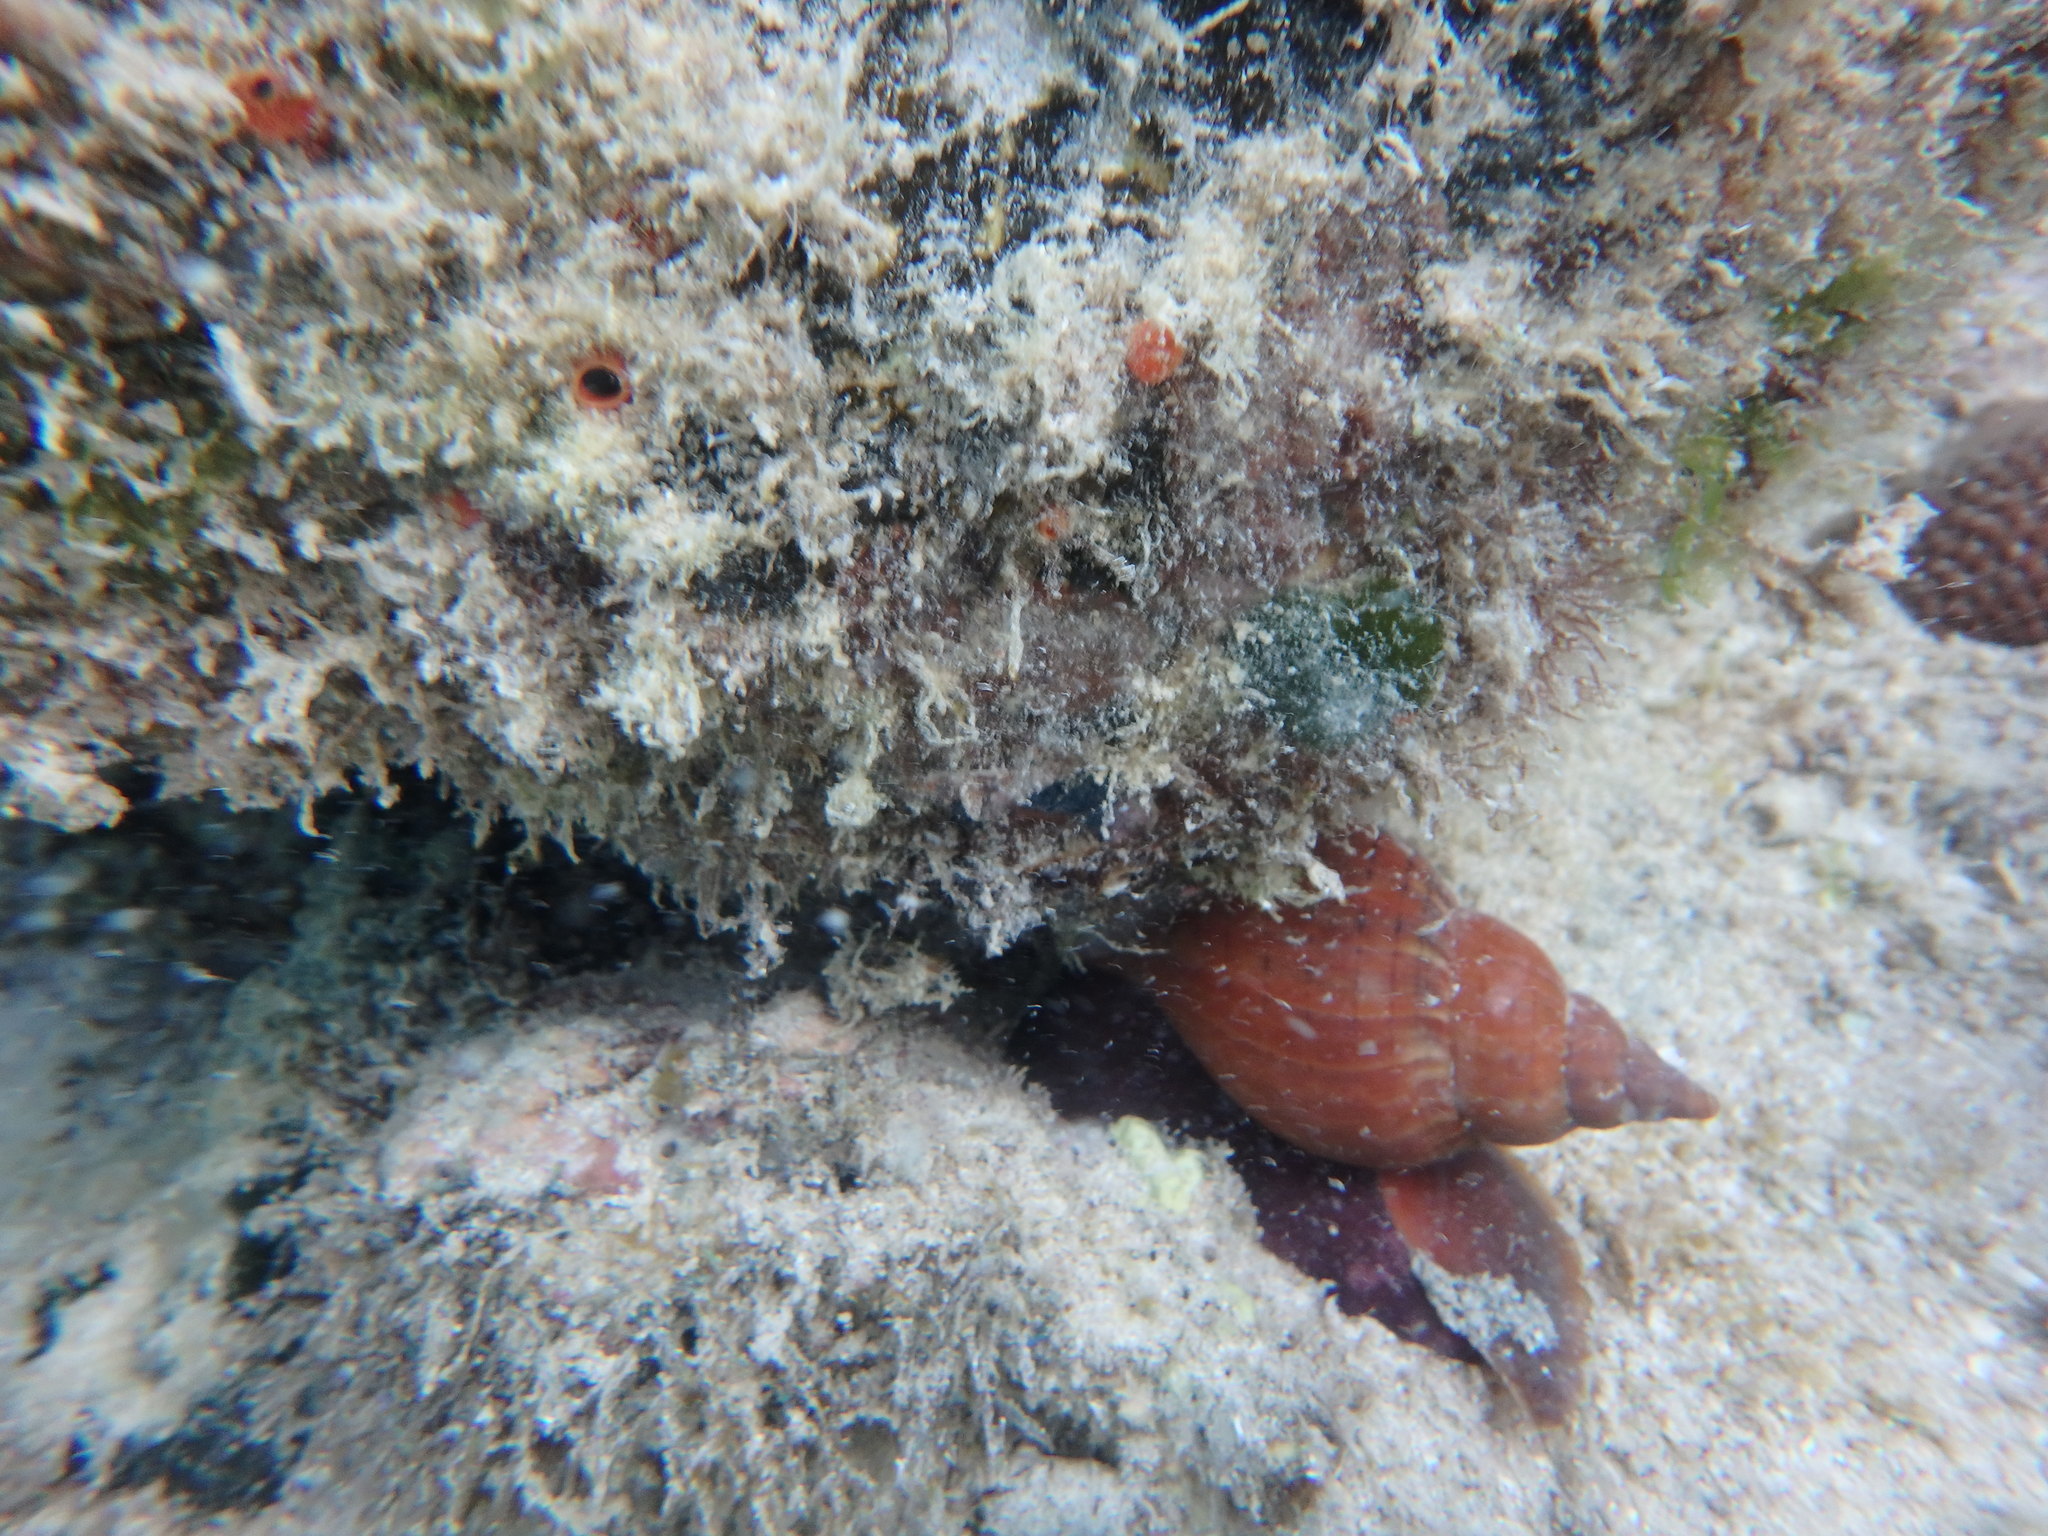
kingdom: Animalia
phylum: Mollusca
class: Gastropoda
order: Neogastropoda
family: Fasciolariidae
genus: Fasciolaria
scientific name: Fasciolaria tulipa
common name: True tulip
